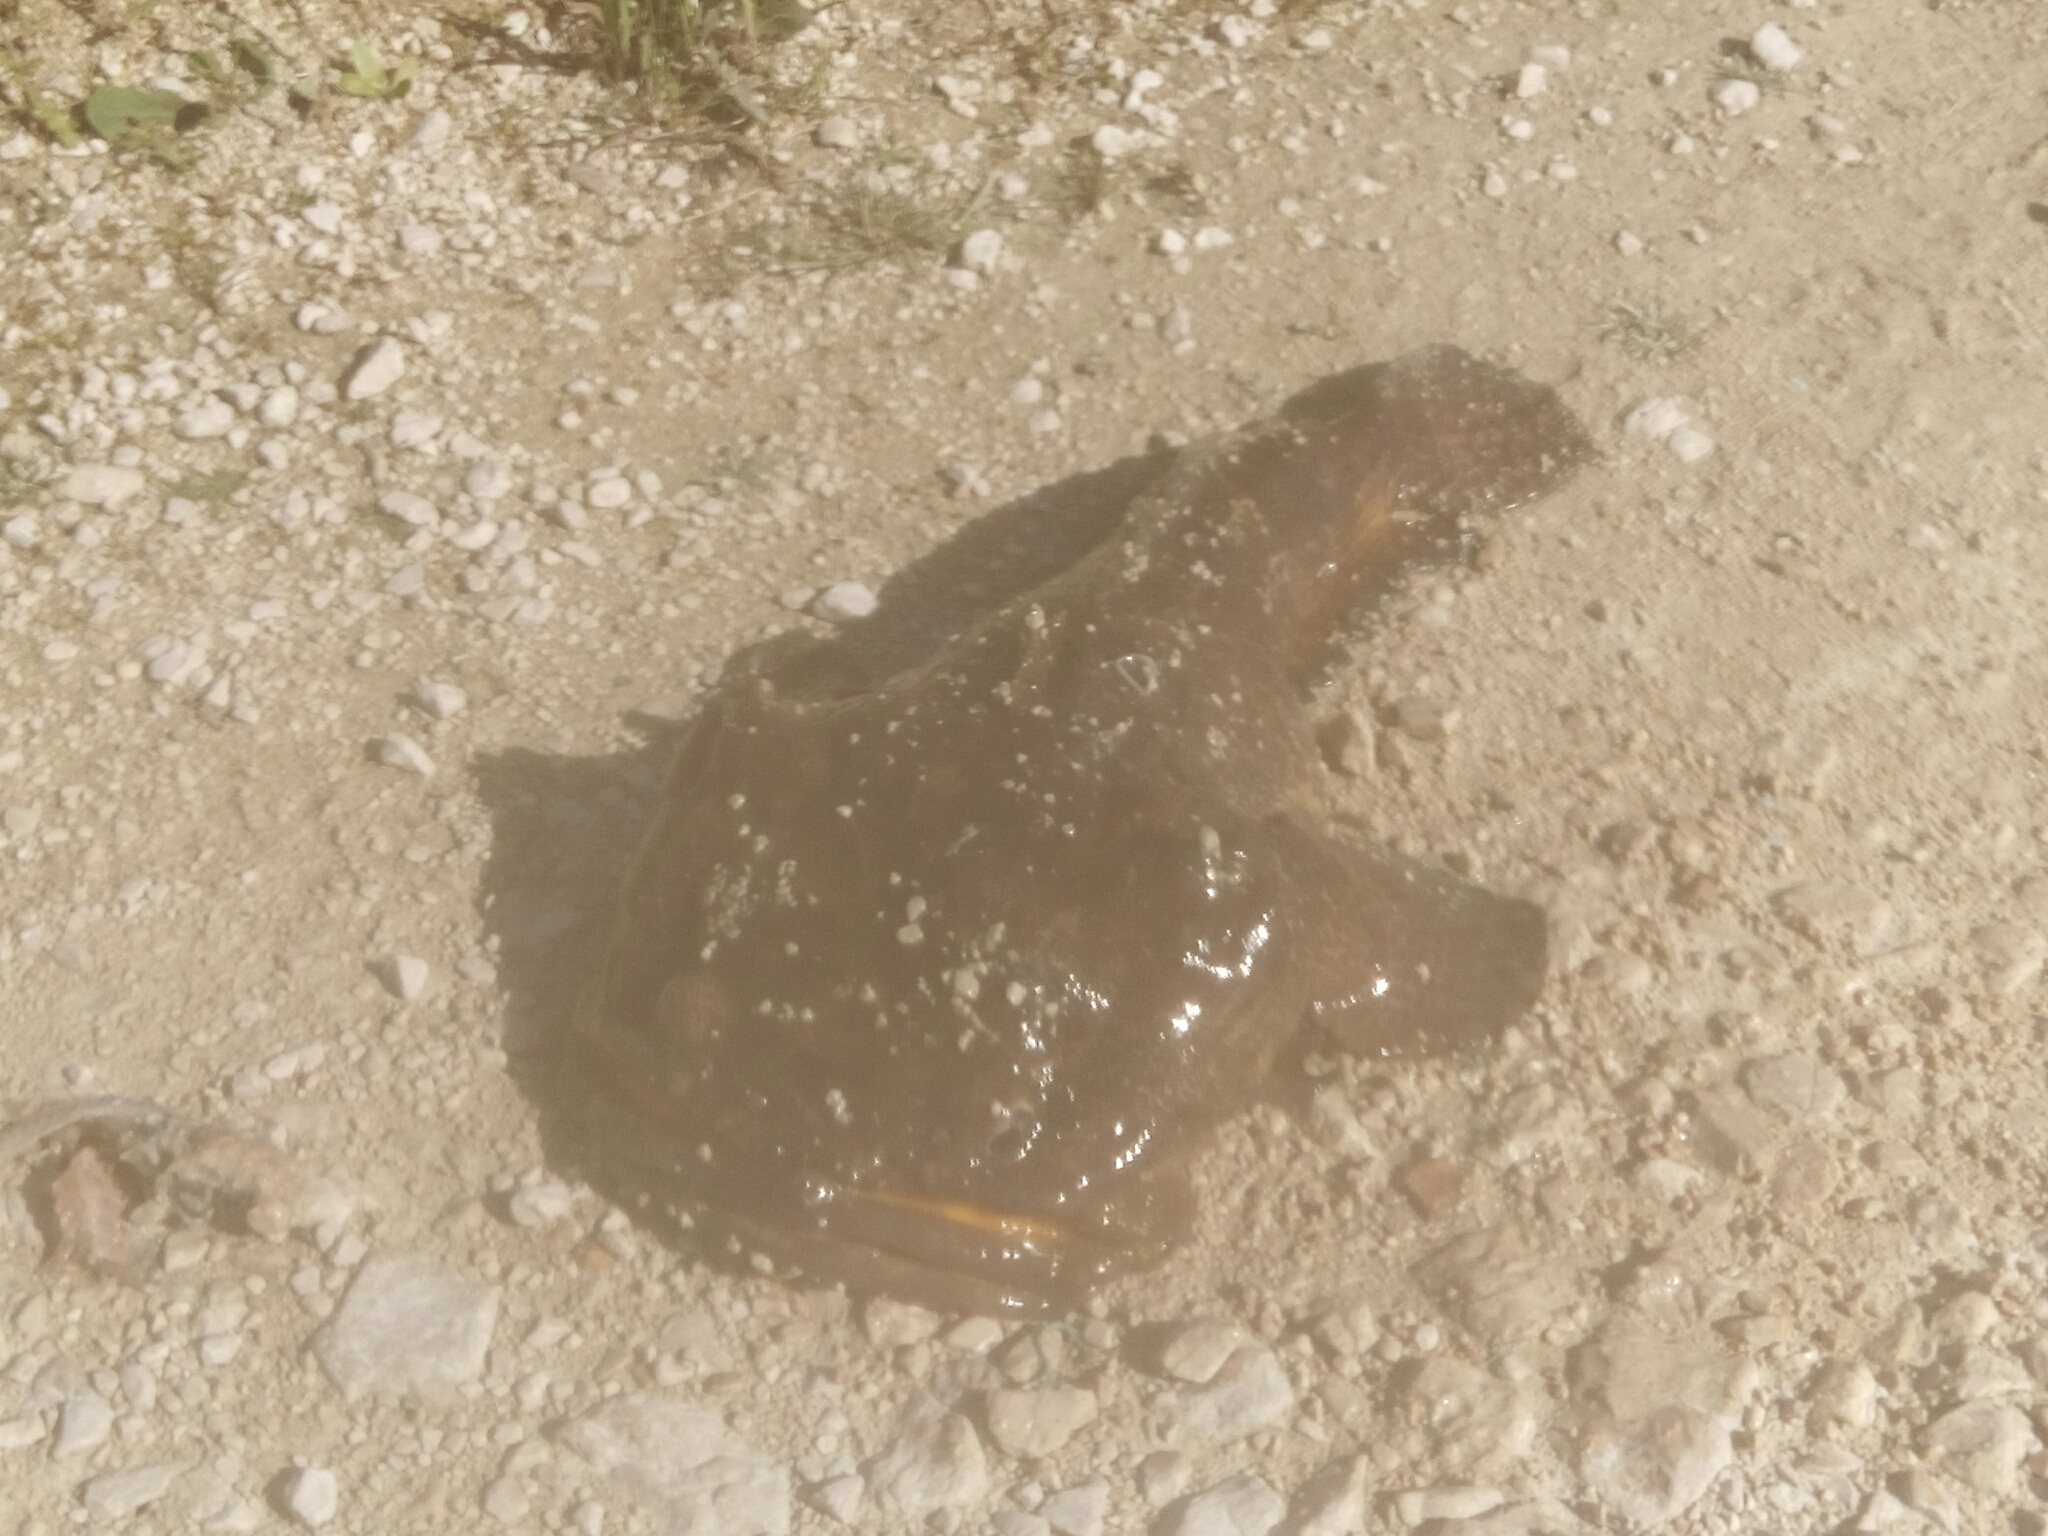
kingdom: Animalia
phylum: Chordata
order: Batrachoidiformes
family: Batrachoididae
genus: Halobatrachus
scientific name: Halobatrachus didactylus
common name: Lusitanian toadfish
